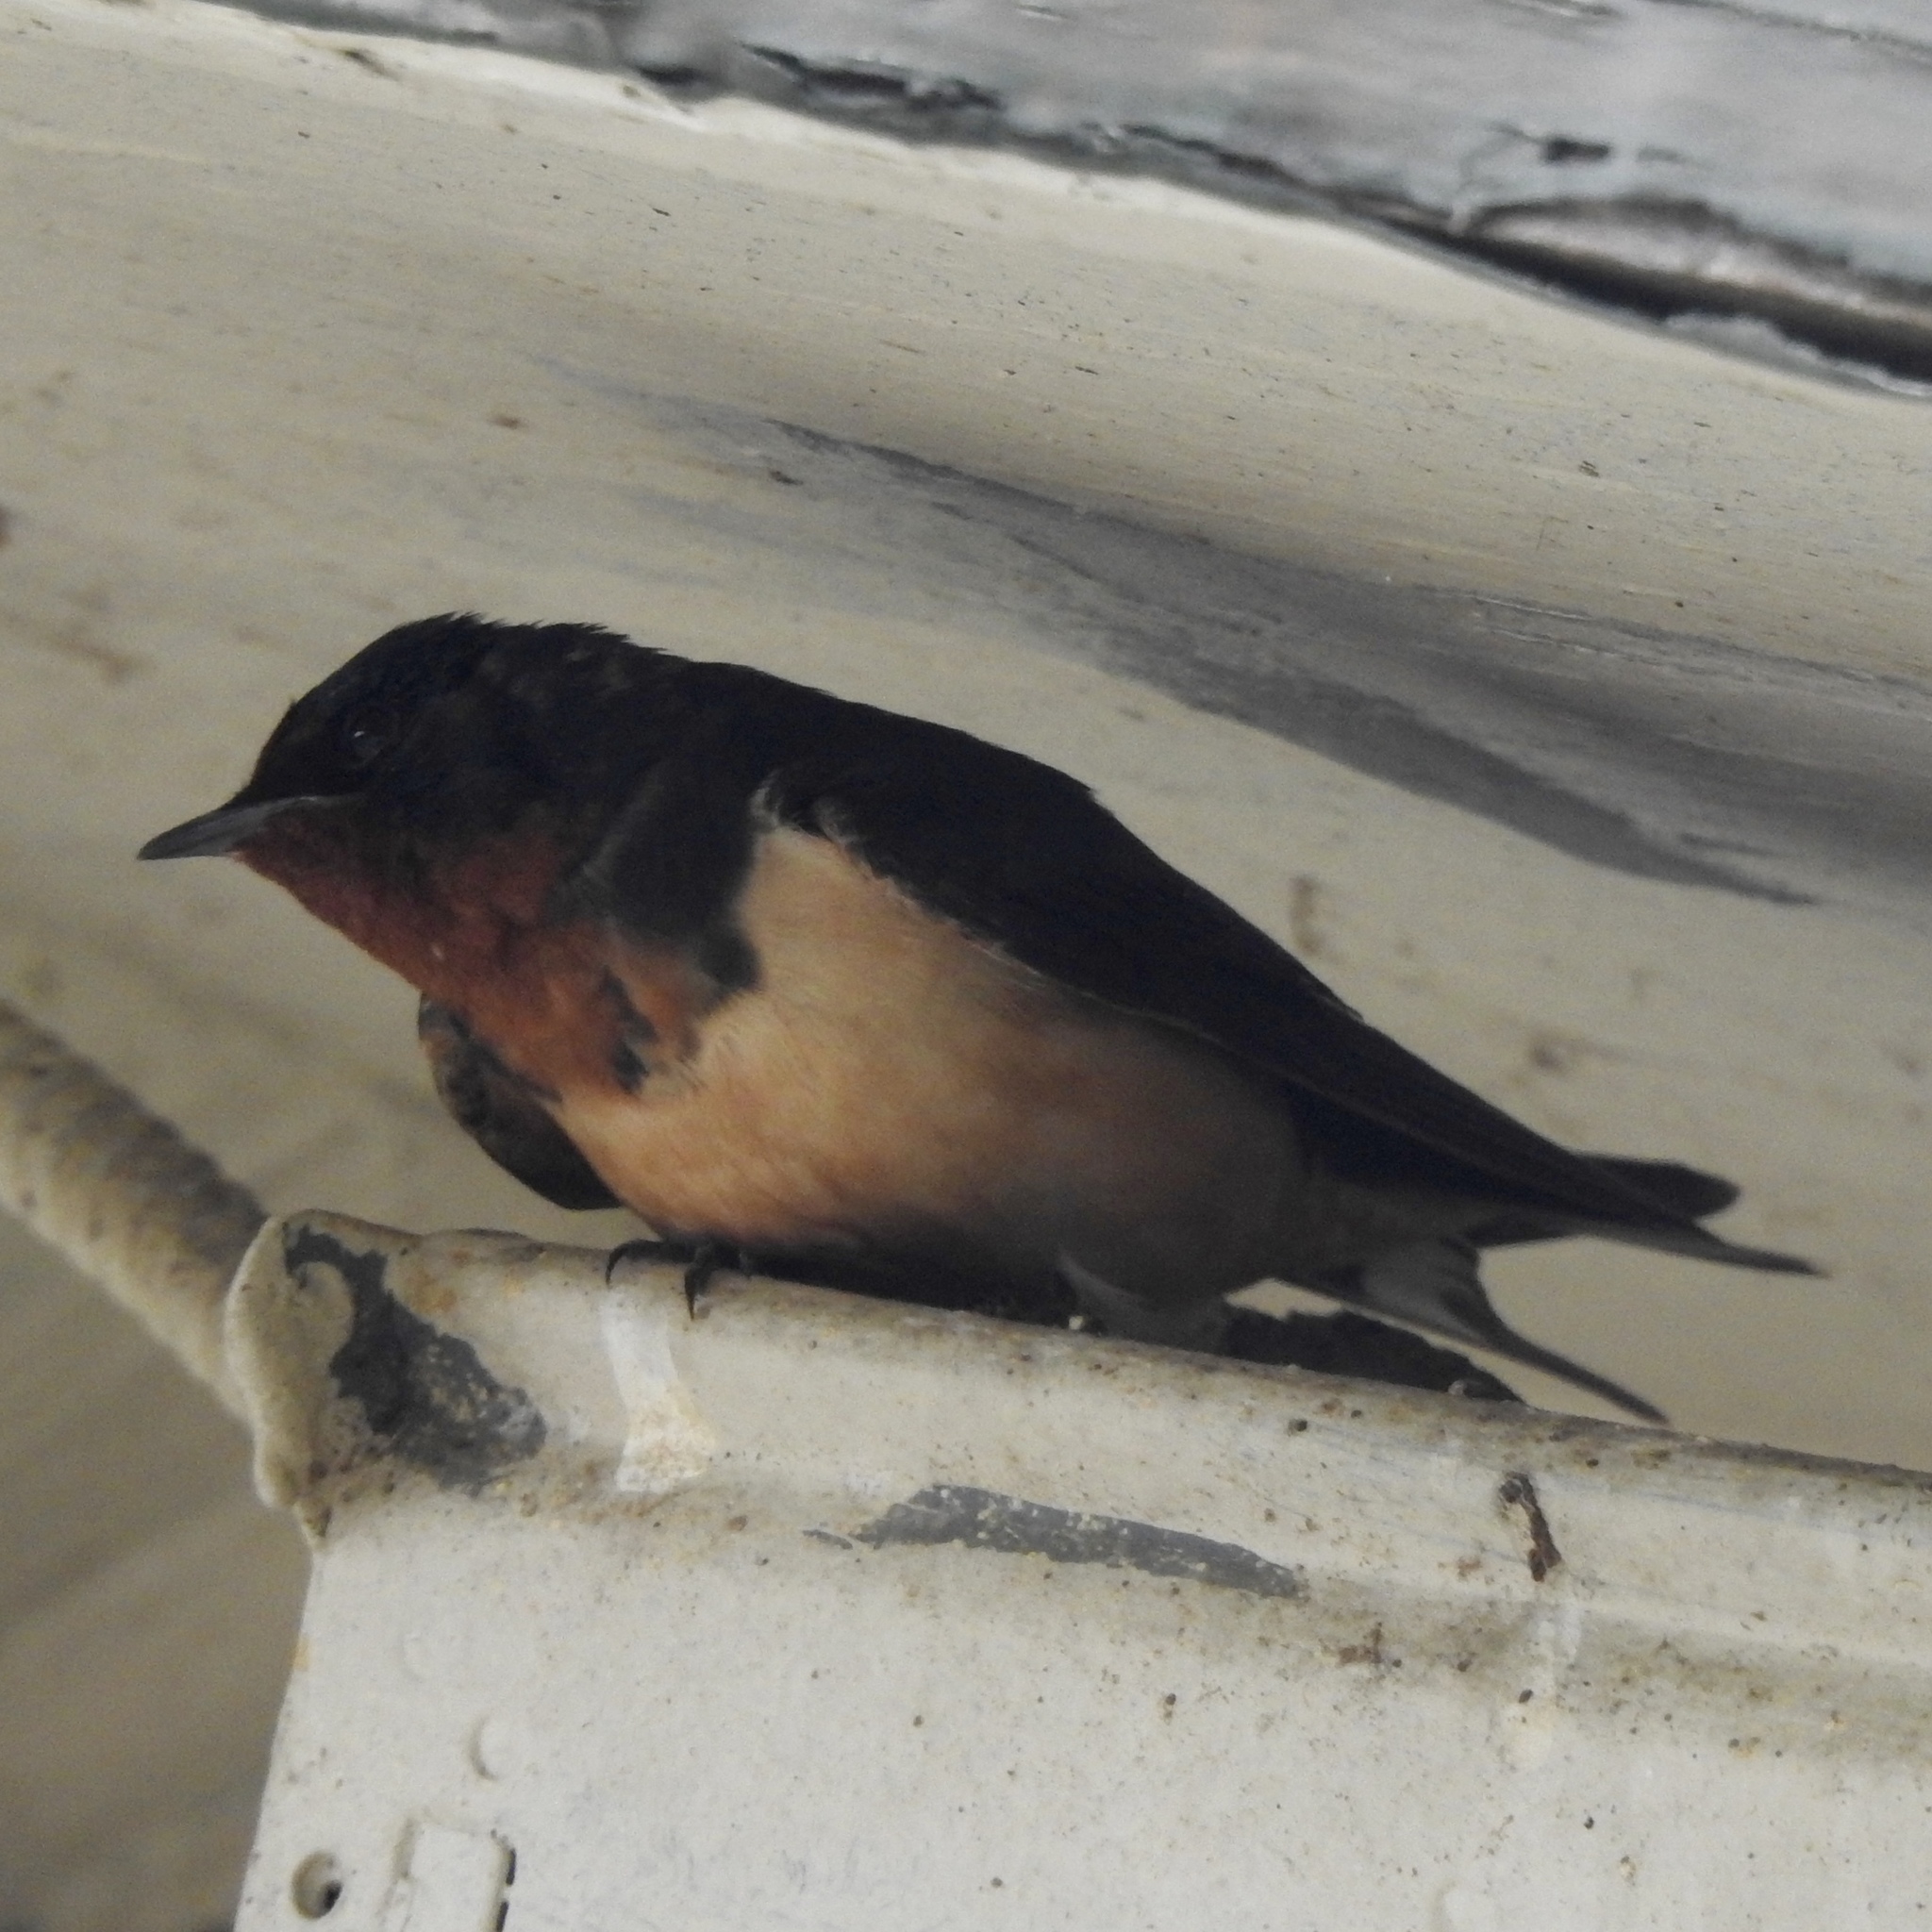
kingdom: Animalia
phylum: Chordata
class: Aves
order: Passeriformes
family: Hirundinidae
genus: Hirundo
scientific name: Hirundo rustica
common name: Barn swallow
